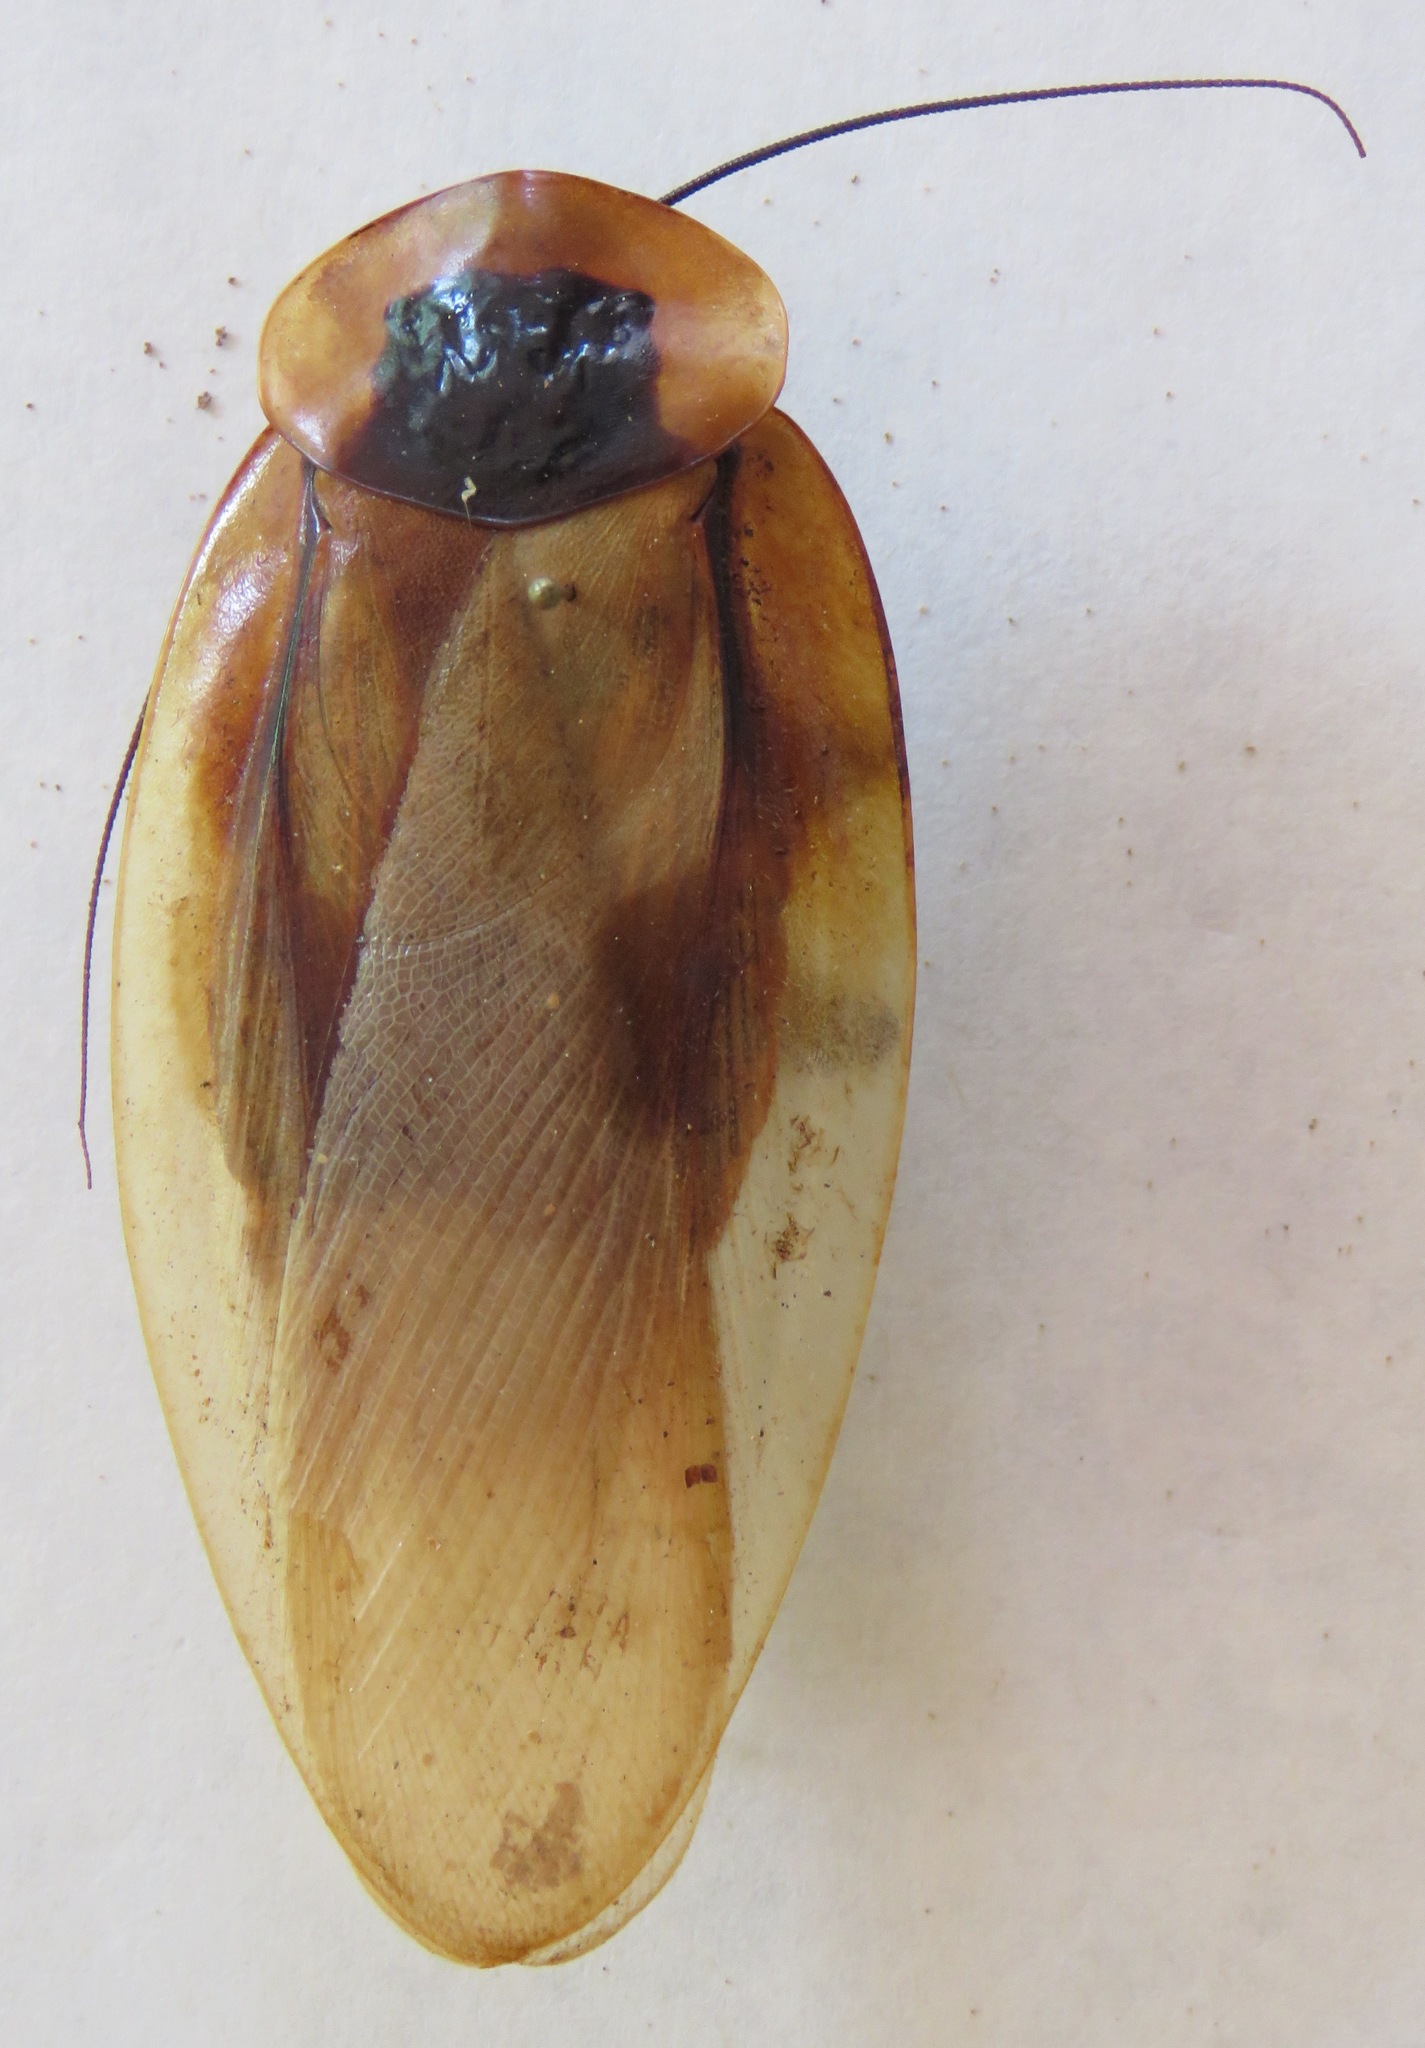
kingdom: Animalia
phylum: Arthropoda
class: Insecta
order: Blattodea
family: Blaberidae
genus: Blaberus
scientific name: Blaberus giganteus
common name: Giant cave cockroach
